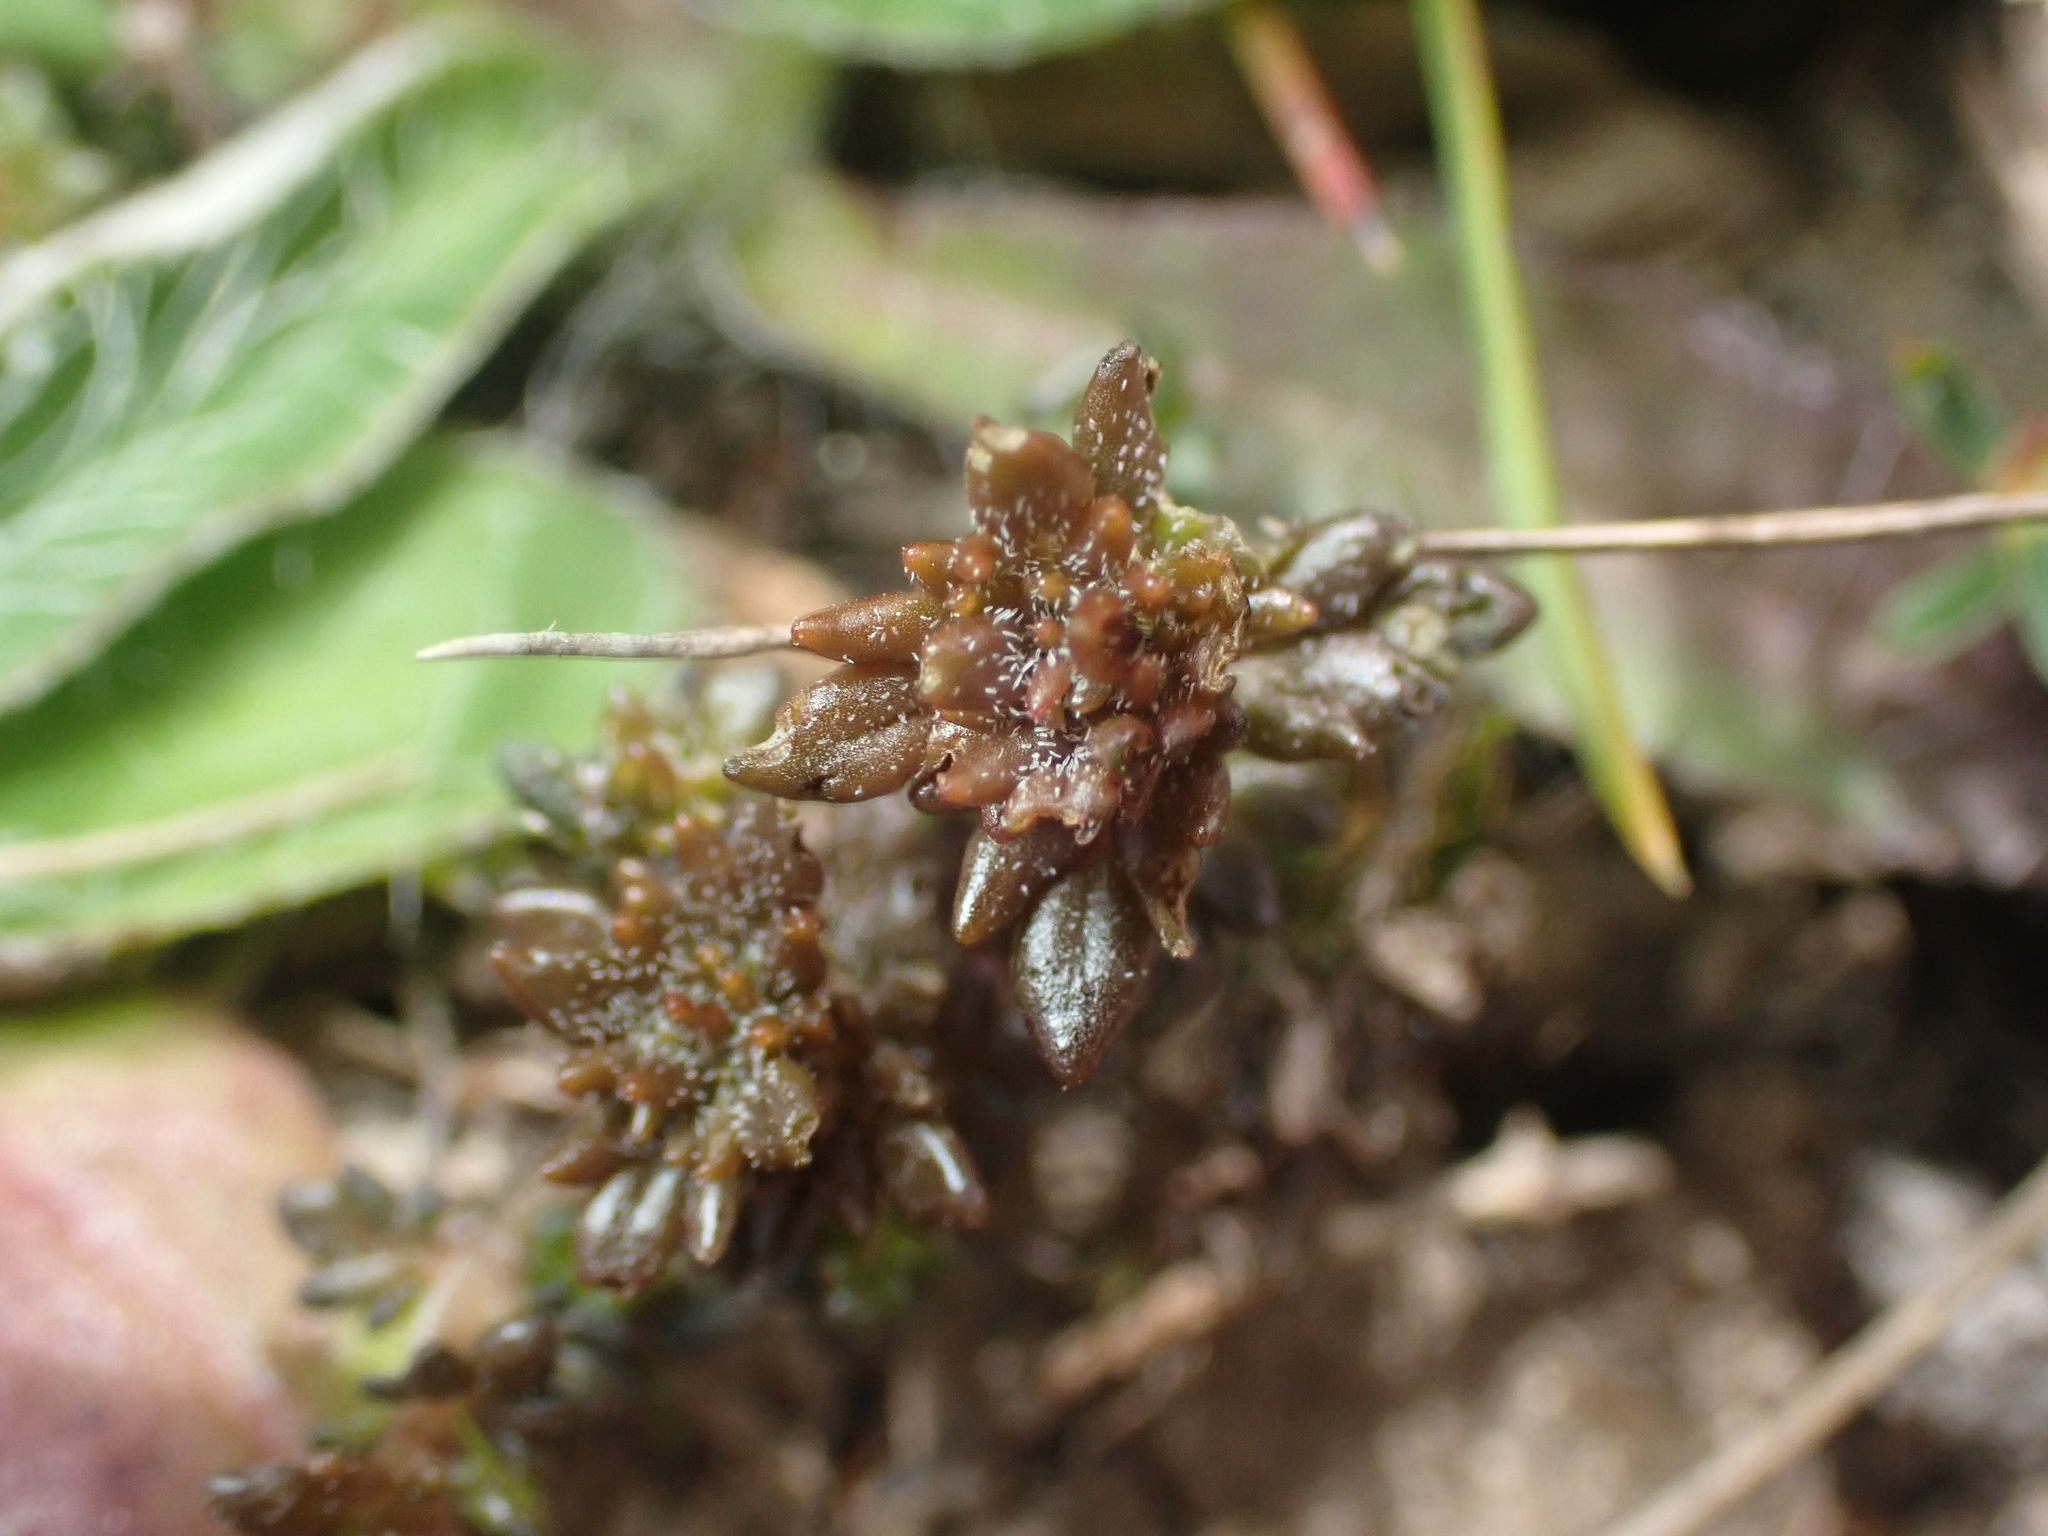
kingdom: Plantae
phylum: Tracheophyta
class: Magnoliopsida
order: Lamiales
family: Orobanchaceae
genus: Euphrasia
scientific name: Euphrasia zelandica
